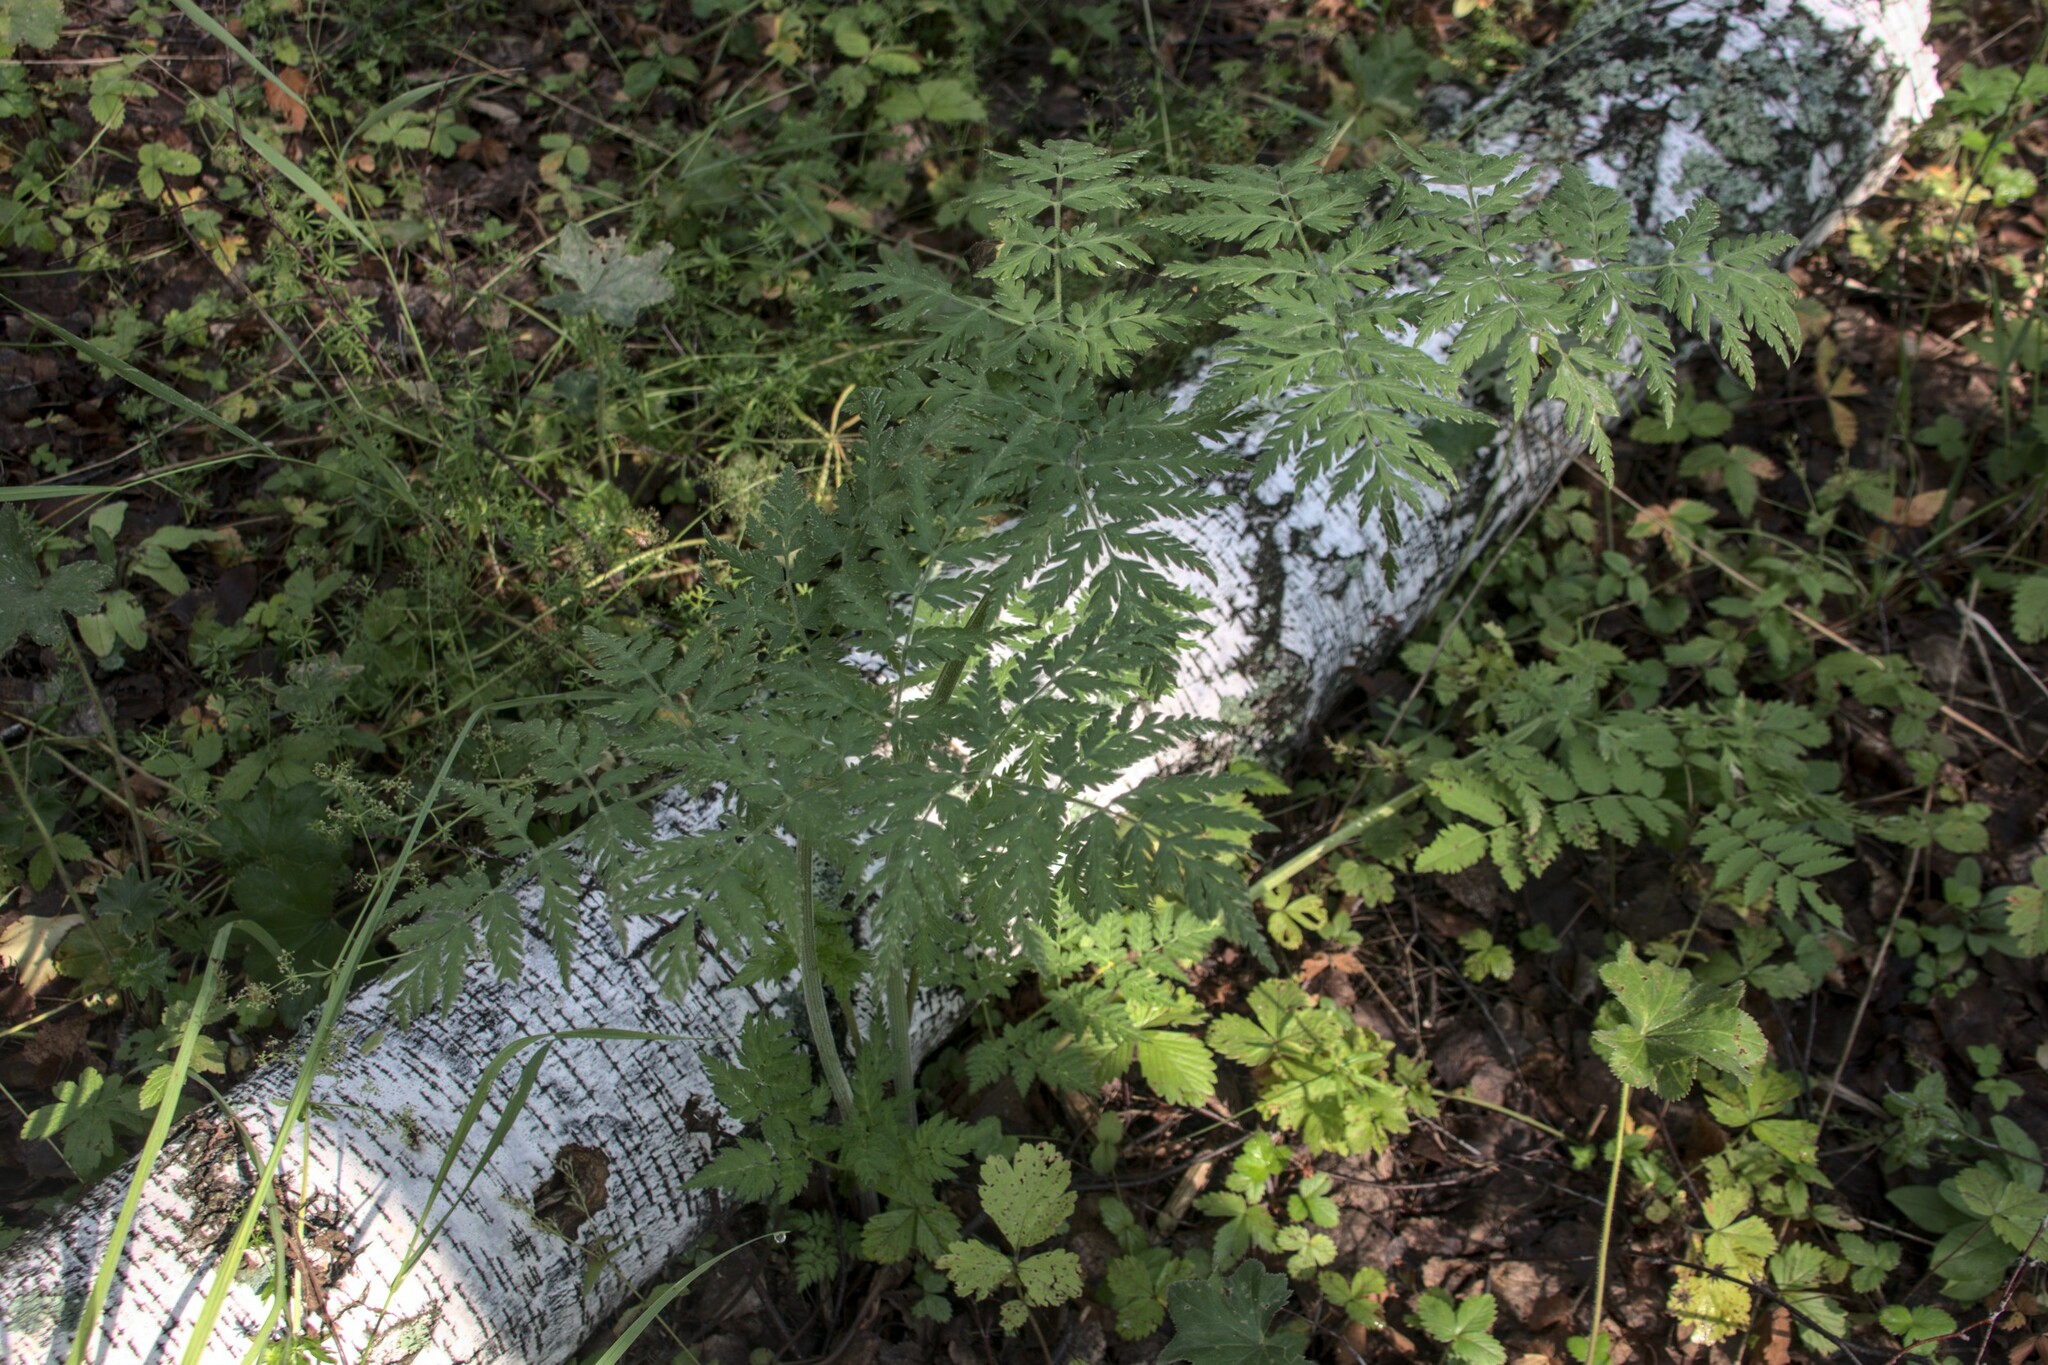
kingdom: Plantae
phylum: Tracheophyta
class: Magnoliopsida
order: Apiales
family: Apiaceae
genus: Anthriscus
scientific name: Anthriscus sylvestris
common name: Cow parsley
